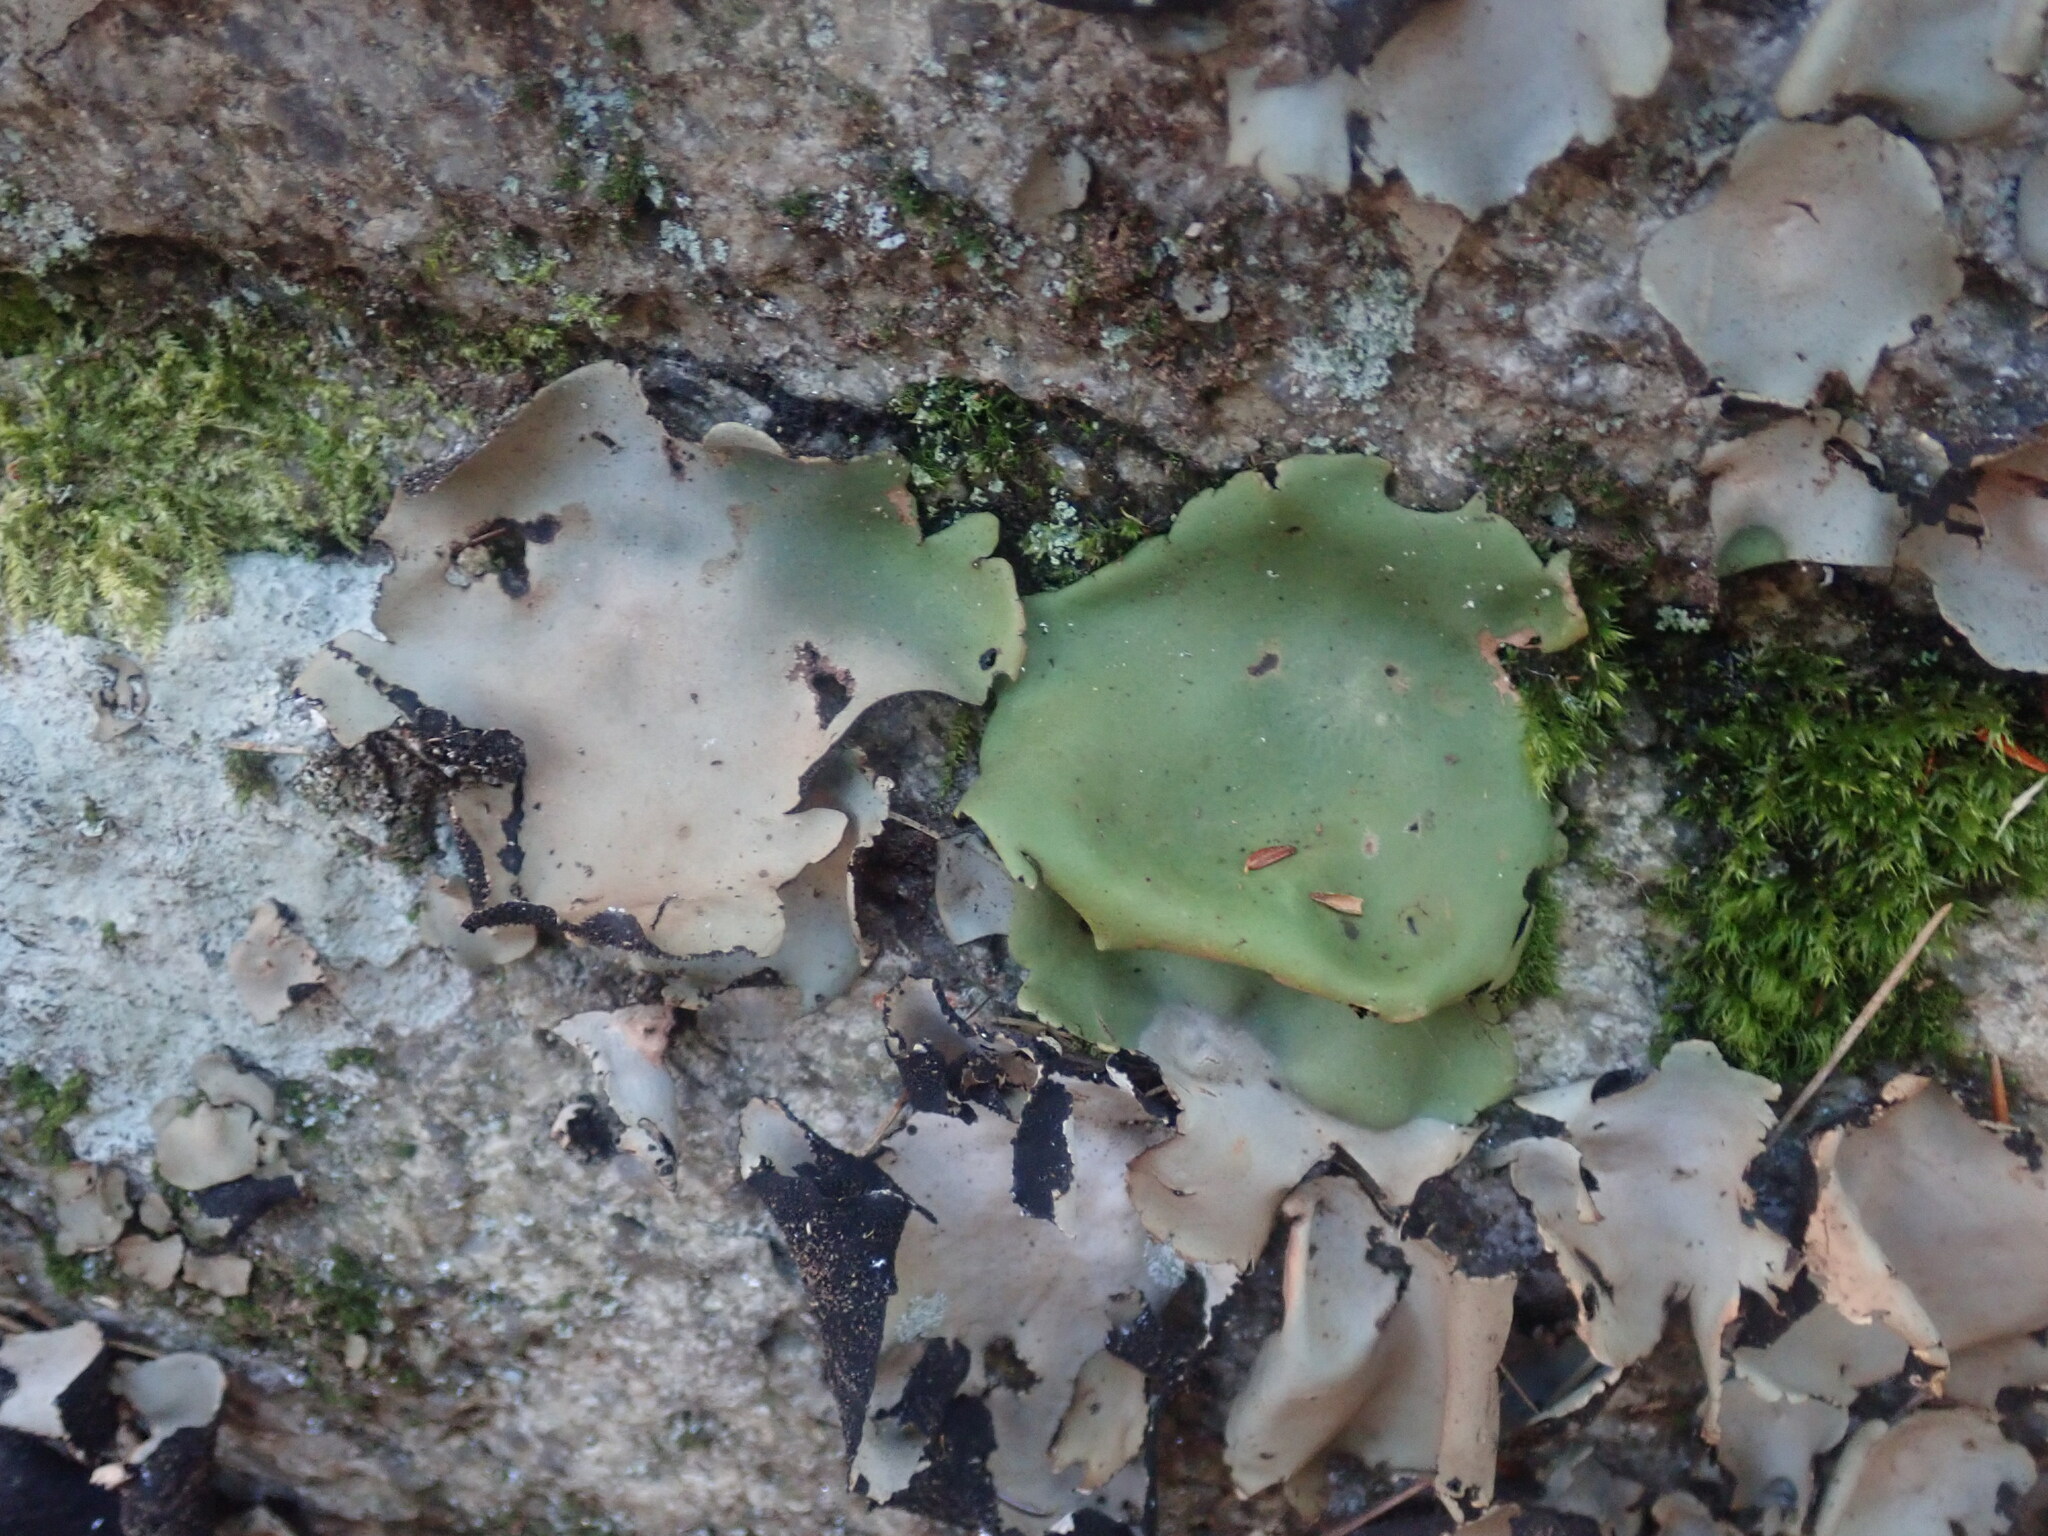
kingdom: Fungi
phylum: Ascomycota
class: Lecanoromycetes
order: Umbilicariales
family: Umbilicariaceae
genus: Umbilicaria
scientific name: Umbilicaria mammulata
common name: Smooth rock tripe
